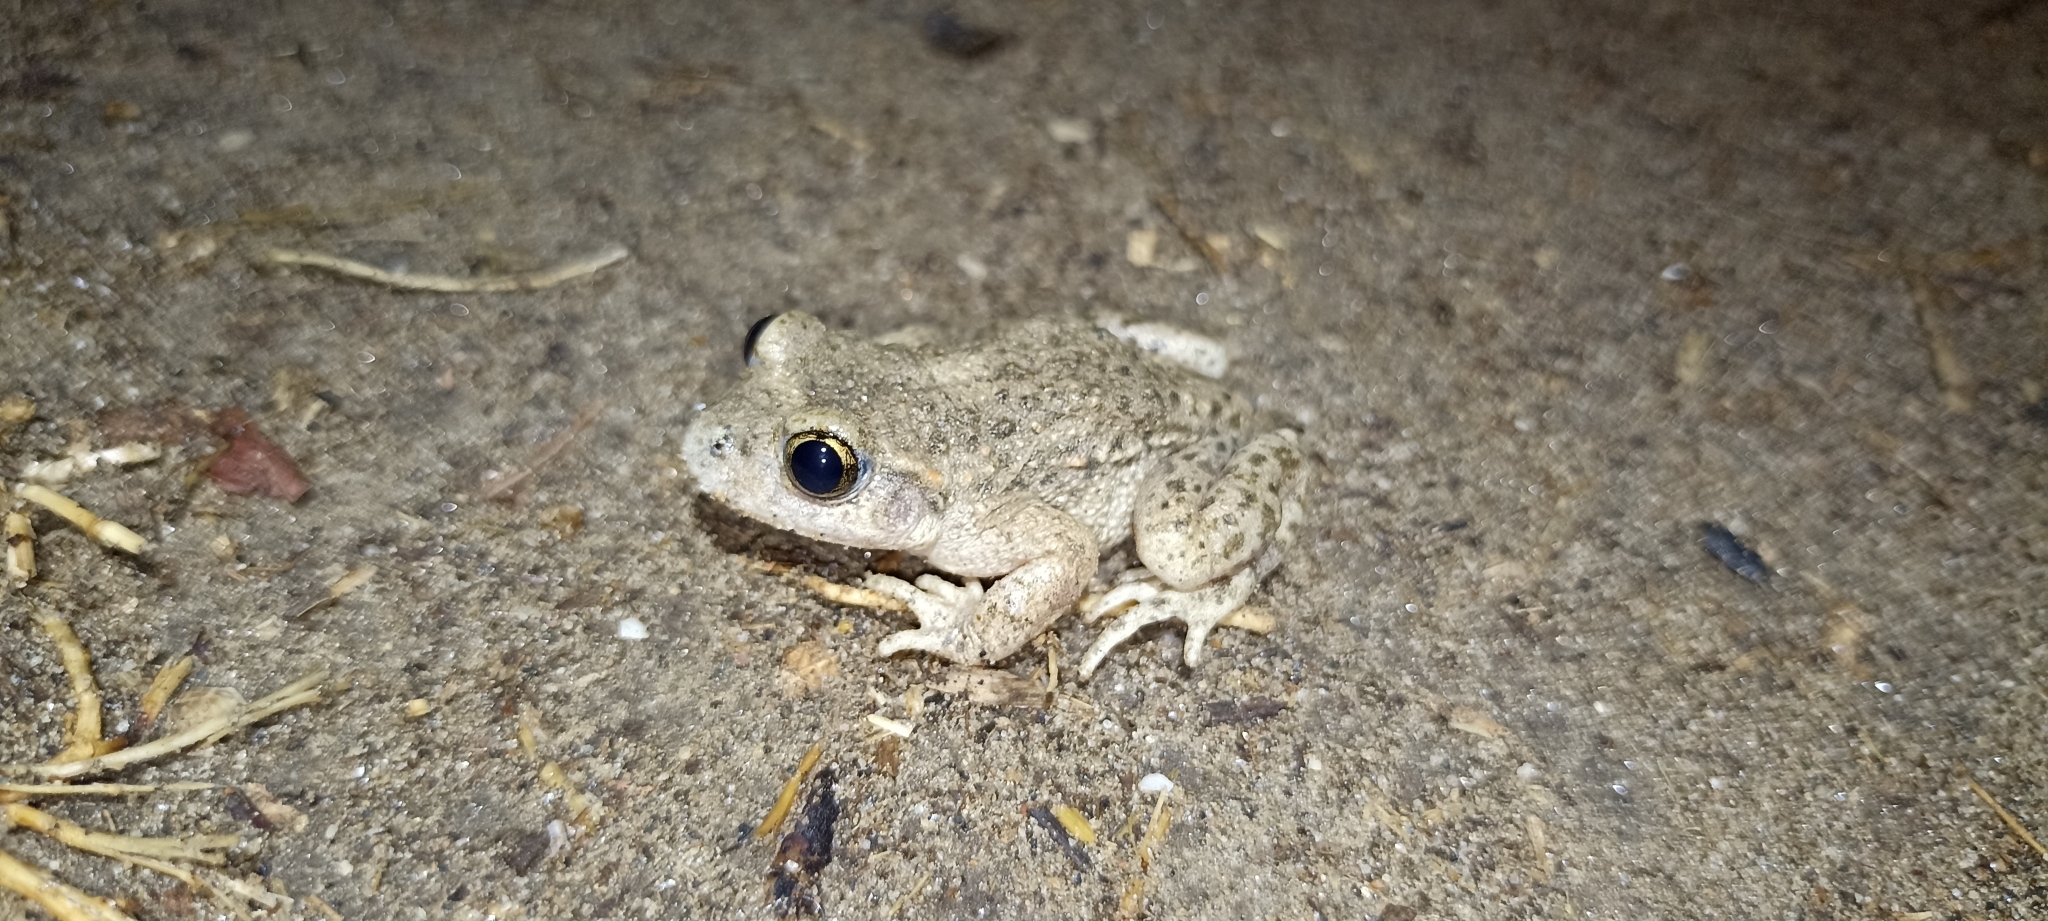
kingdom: Animalia
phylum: Chordata
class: Amphibia
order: Anura
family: Alytidae
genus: Alytes
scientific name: Alytes obstetricans
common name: Midwife toad
